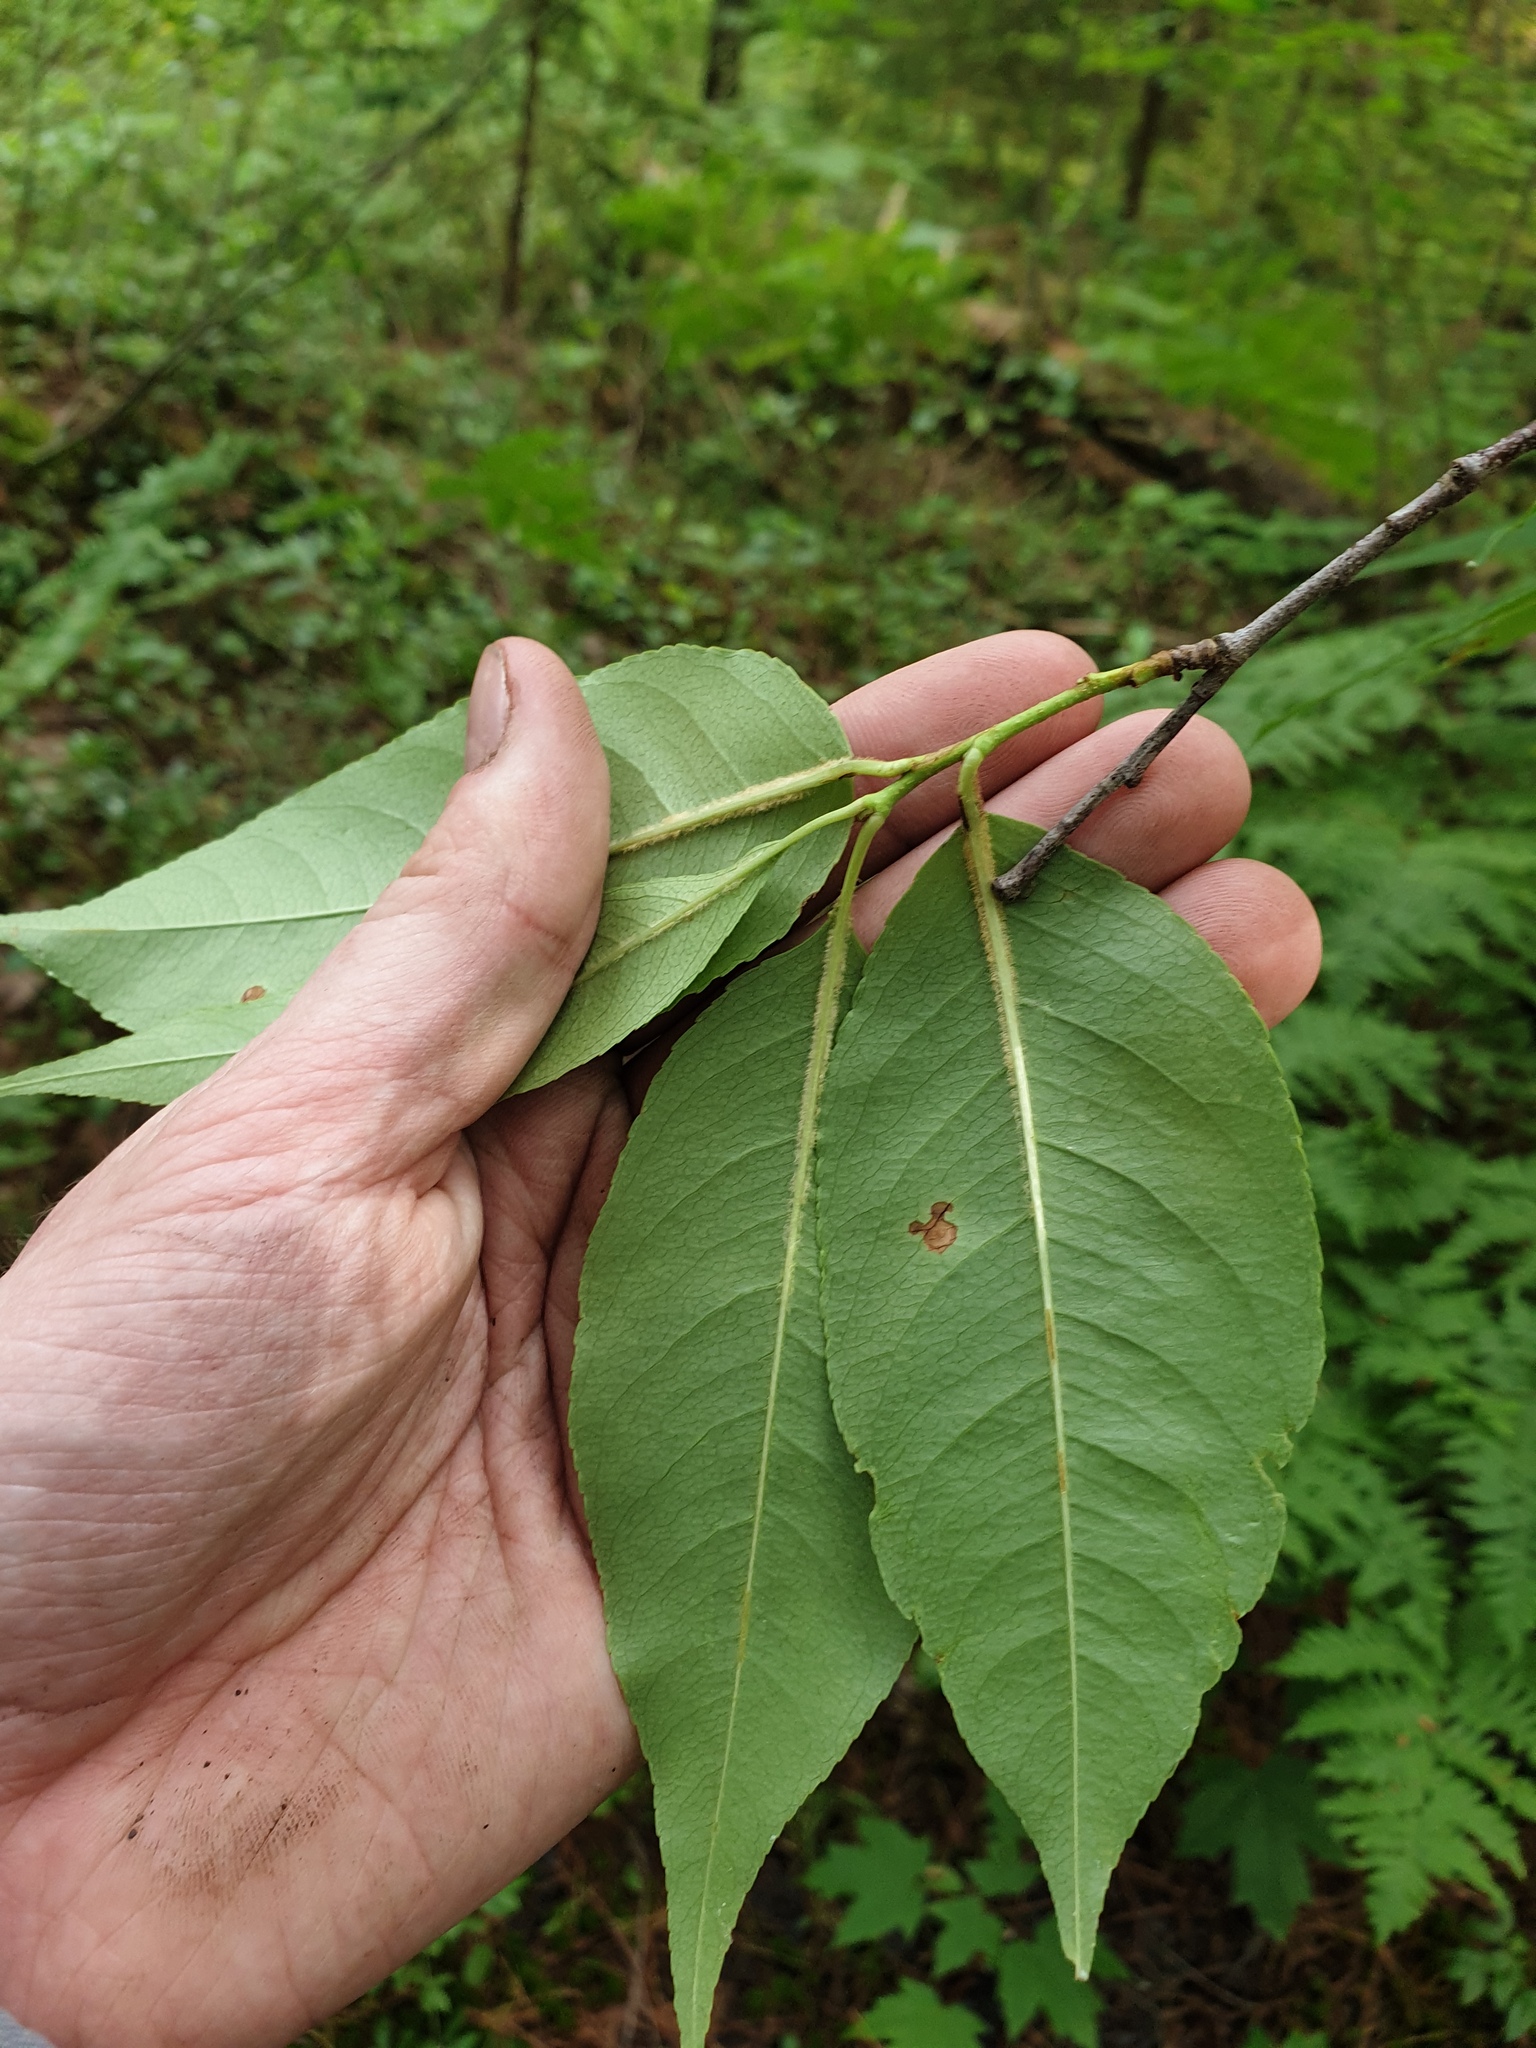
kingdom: Plantae
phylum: Tracheophyta
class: Magnoliopsida
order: Rosales
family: Rosaceae
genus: Prunus
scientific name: Prunus serotina
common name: Black cherry
